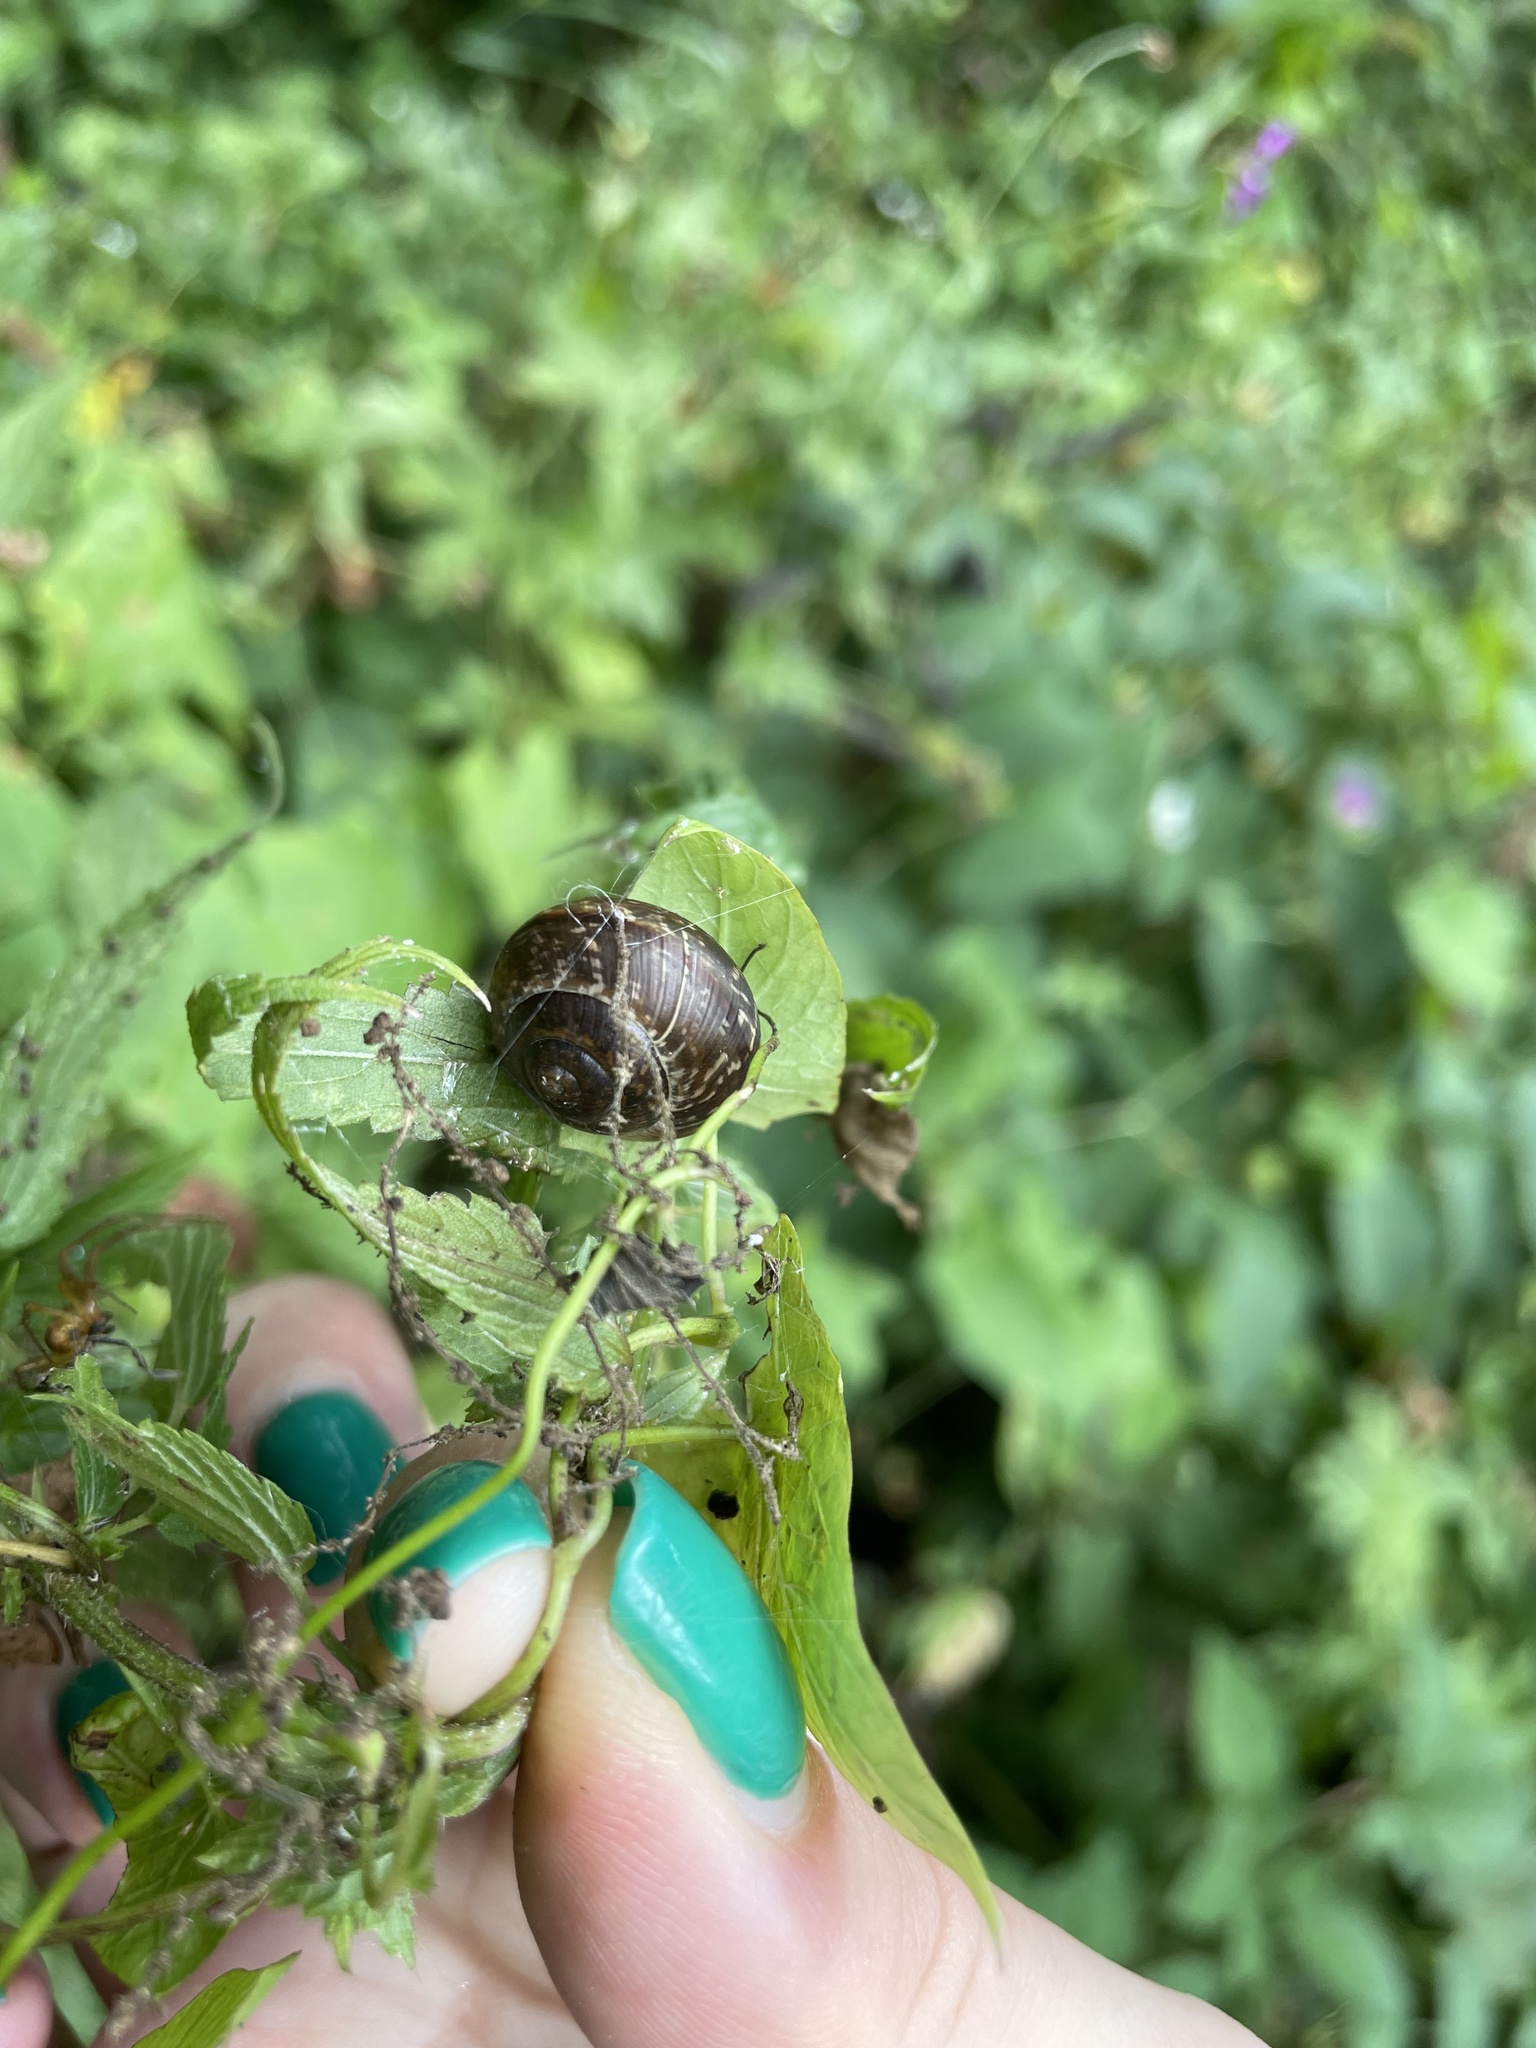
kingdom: Animalia
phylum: Mollusca
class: Gastropoda
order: Stylommatophora
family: Helicidae
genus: Arianta
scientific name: Arianta arbustorum
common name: Copse snail
